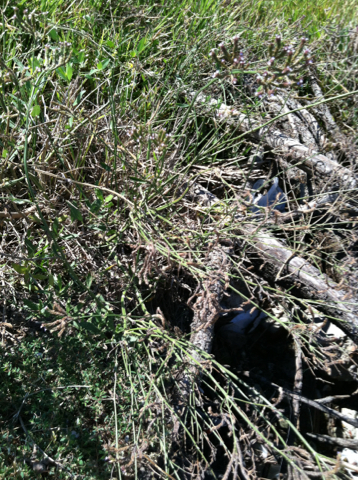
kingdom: Plantae
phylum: Tracheophyta
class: Magnoliopsida
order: Lamiales
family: Verbenaceae
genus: Verbena
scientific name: Verbena brasiliensis
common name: Brazilian vervain
